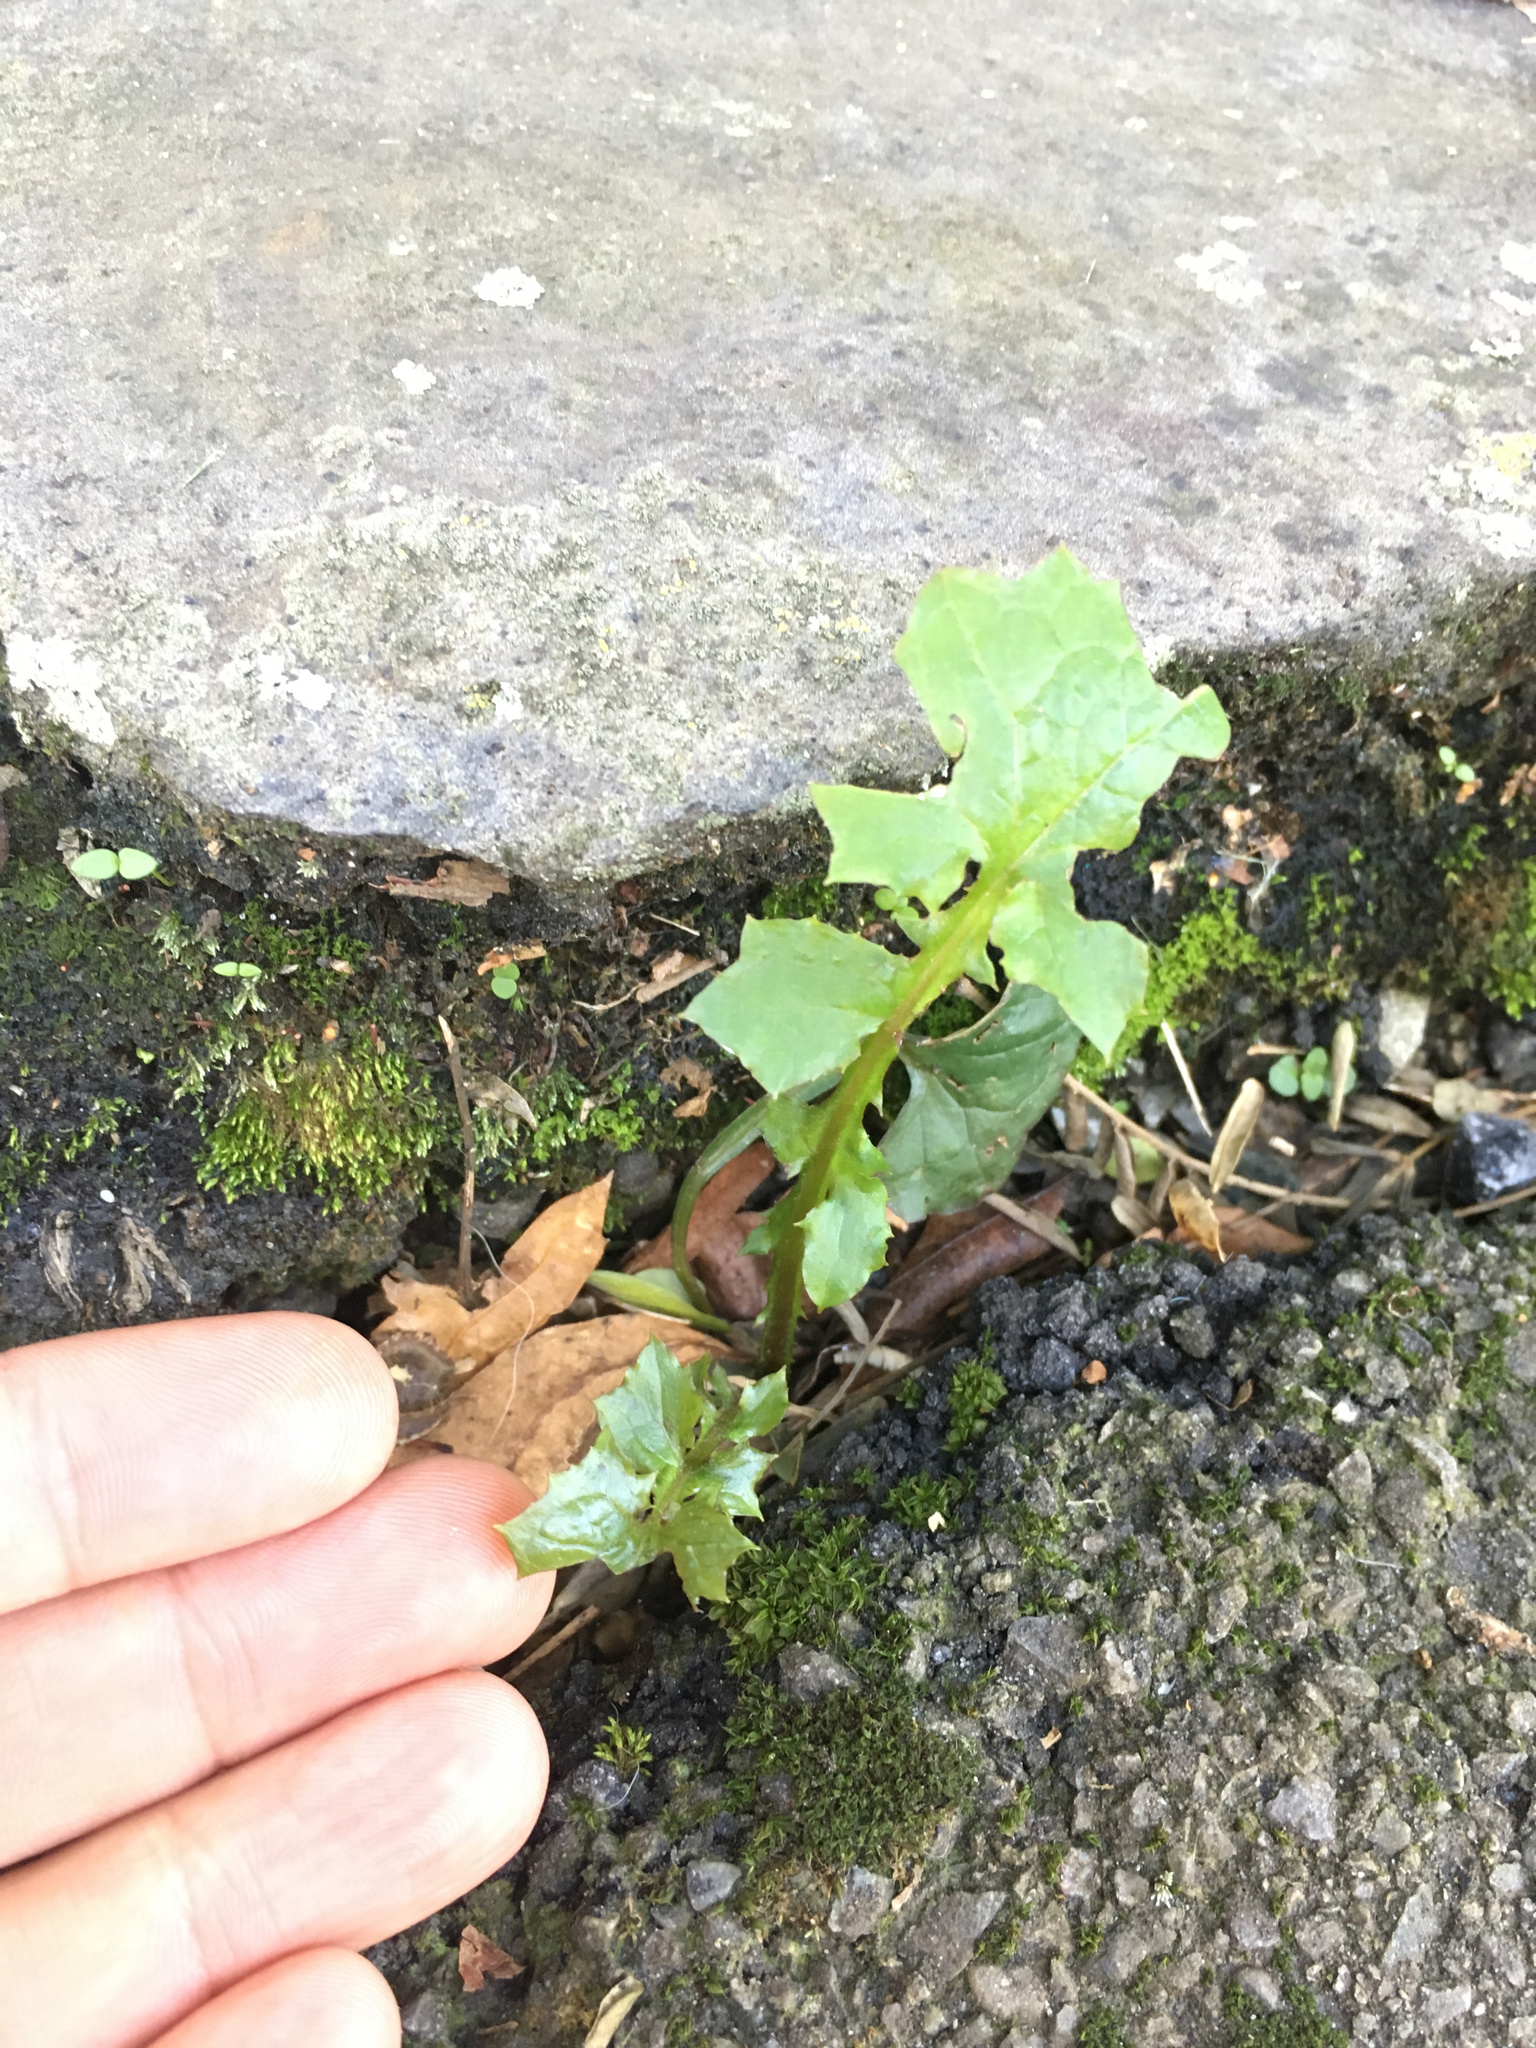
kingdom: Plantae
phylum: Tracheophyta
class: Magnoliopsida
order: Asterales
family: Asteraceae
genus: Mycelis
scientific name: Mycelis muralis
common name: Wall lettuce
